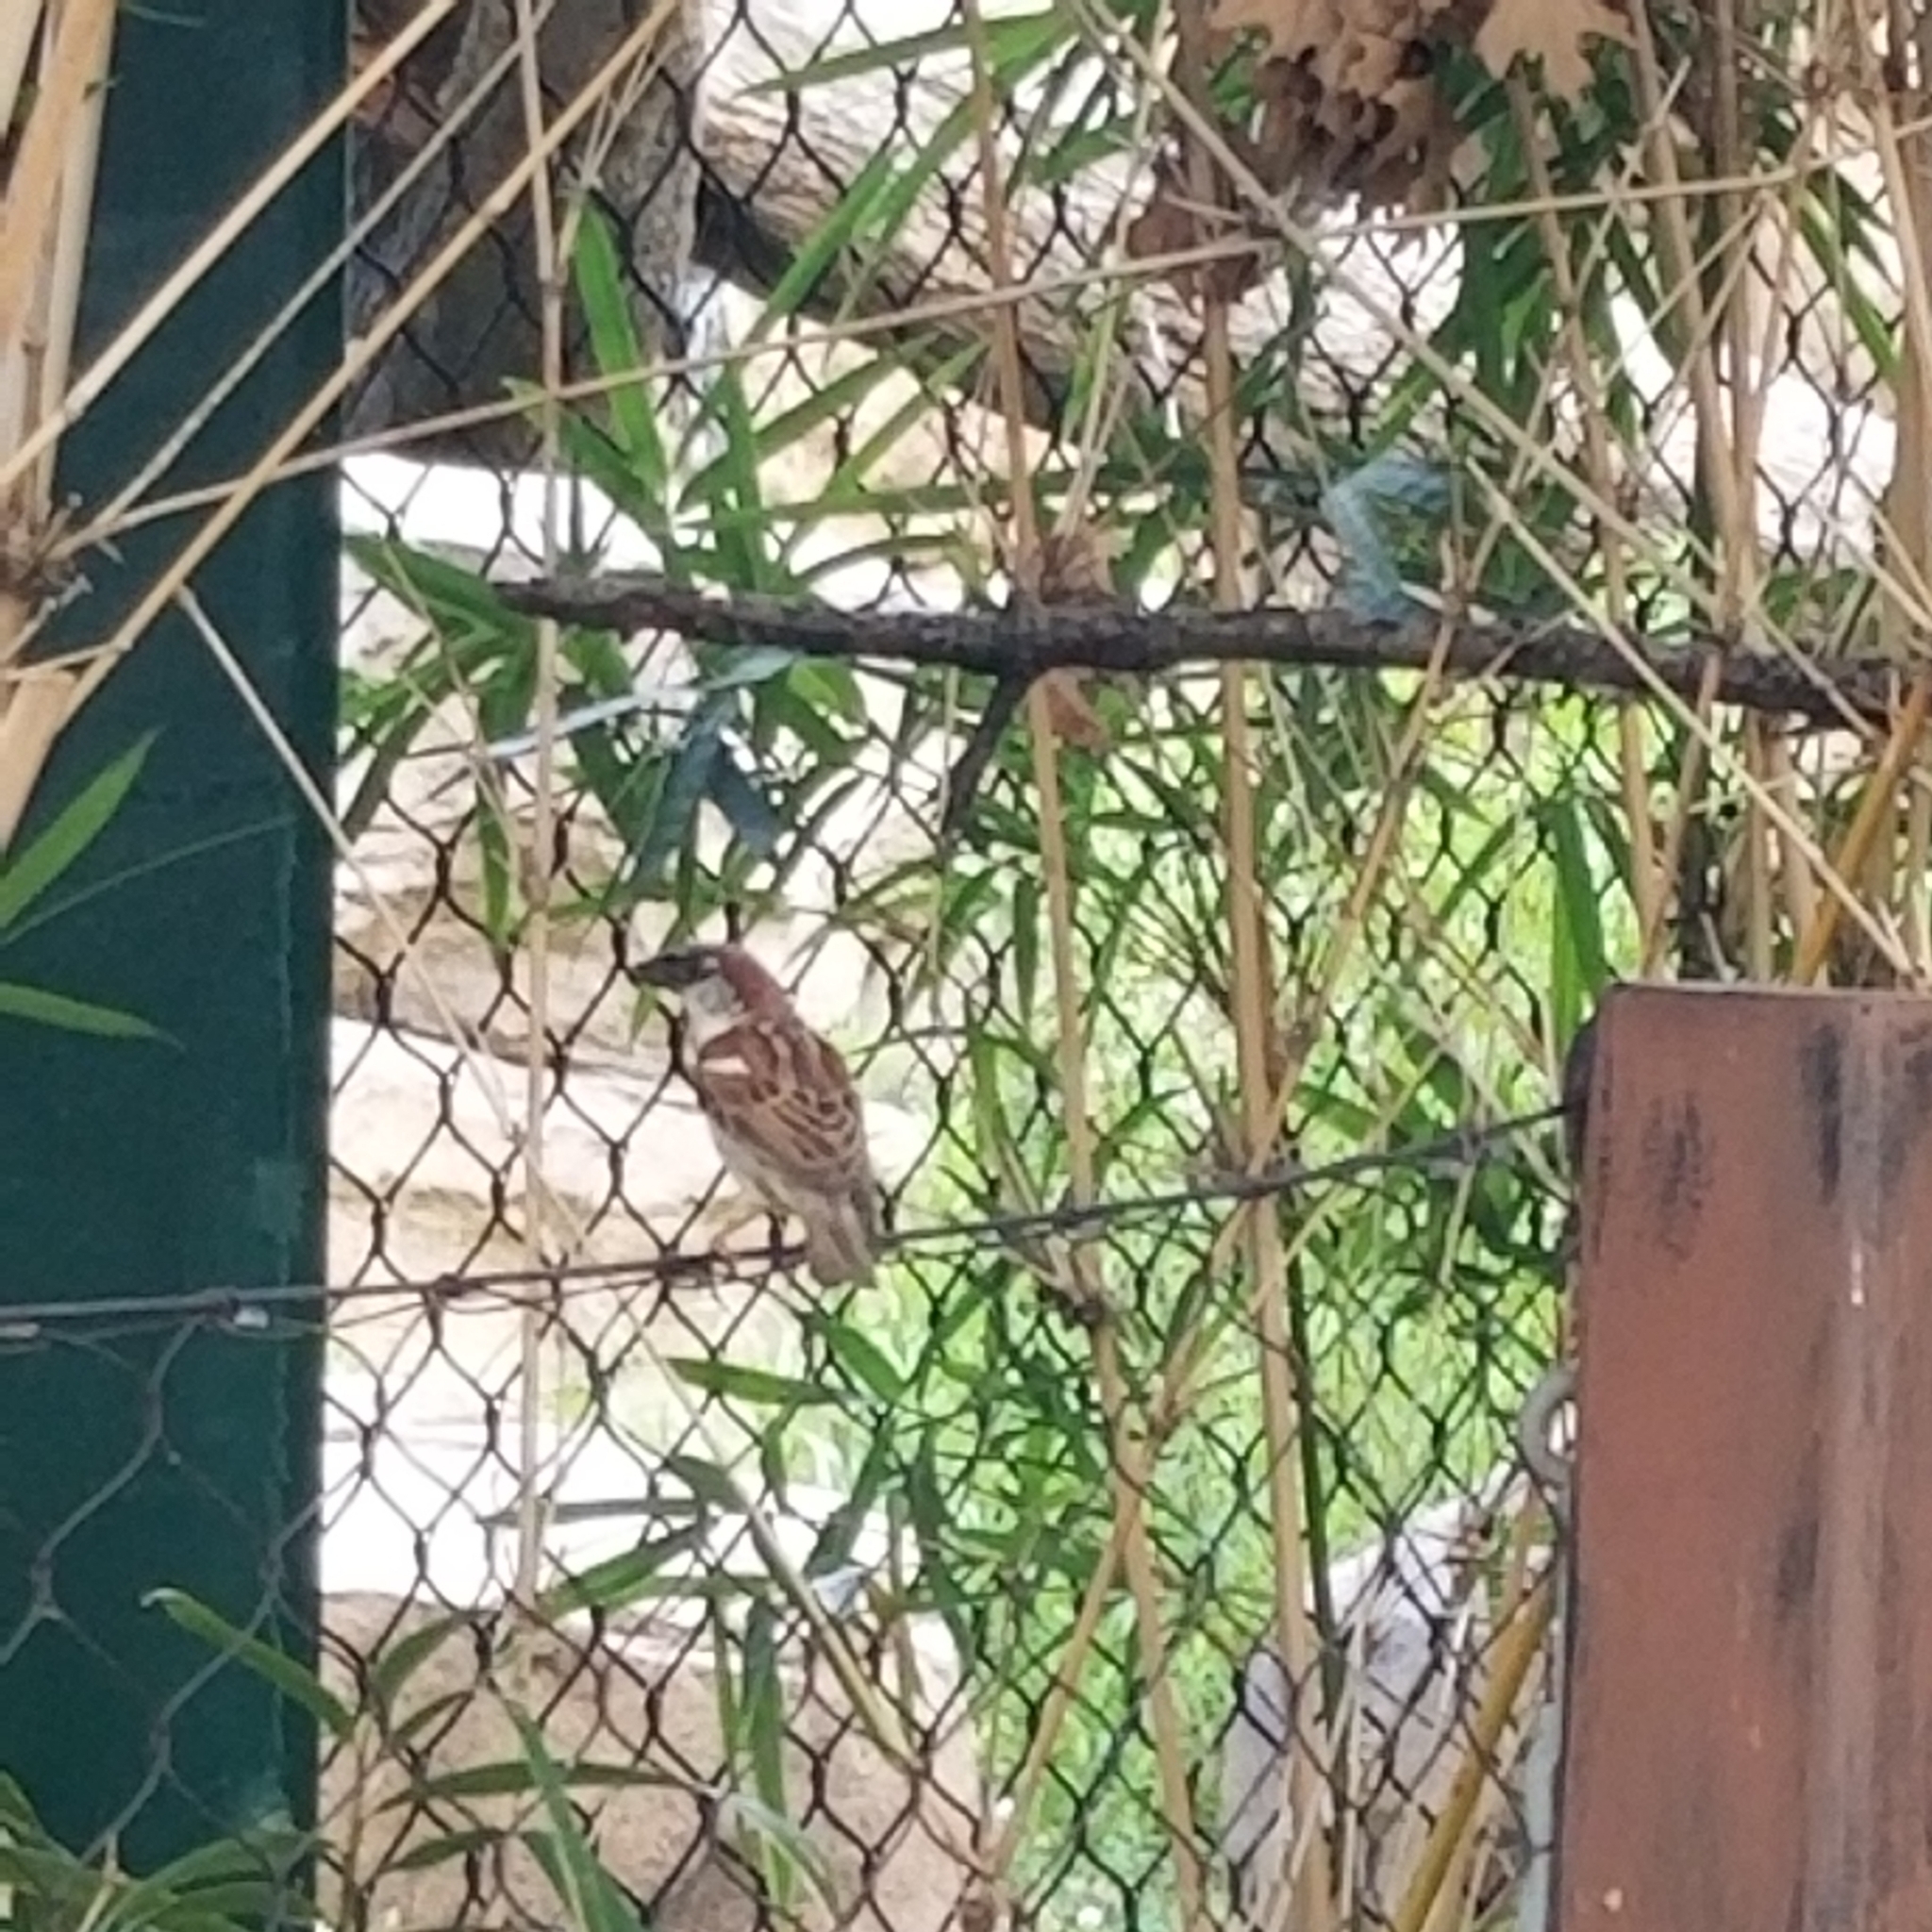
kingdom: Animalia
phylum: Chordata
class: Aves
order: Passeriformes
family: Passeridae
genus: Passer
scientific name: Passer domesticus
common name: House sparrow
